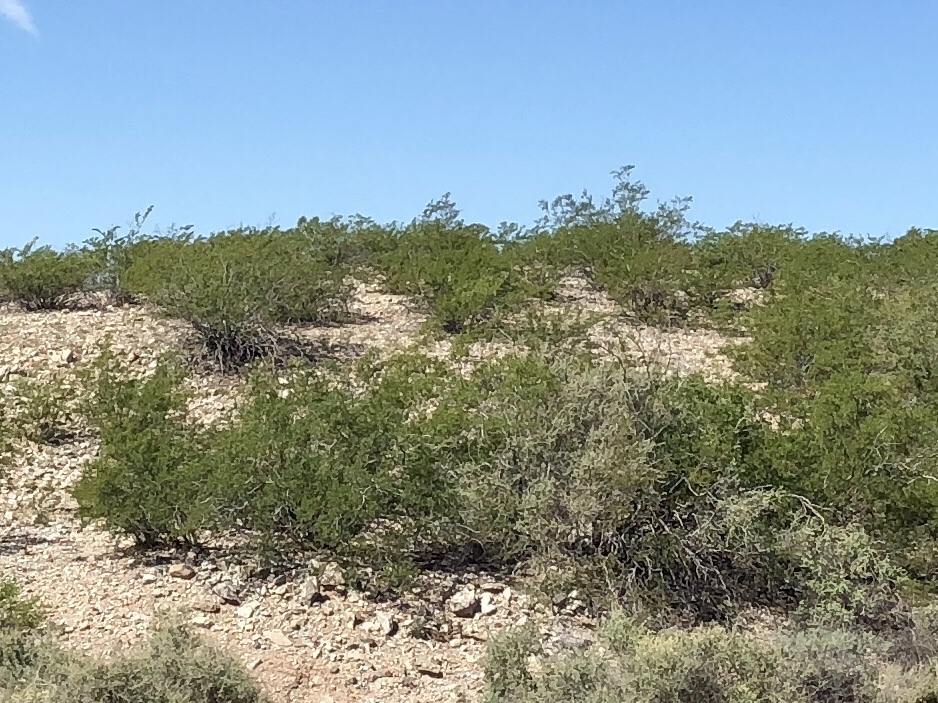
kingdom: Plantae
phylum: Tracheophyta
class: Magnoliopsida
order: Zygophyllales
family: Zygophyllaceae
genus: Larrea
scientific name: Larrea tridentata
